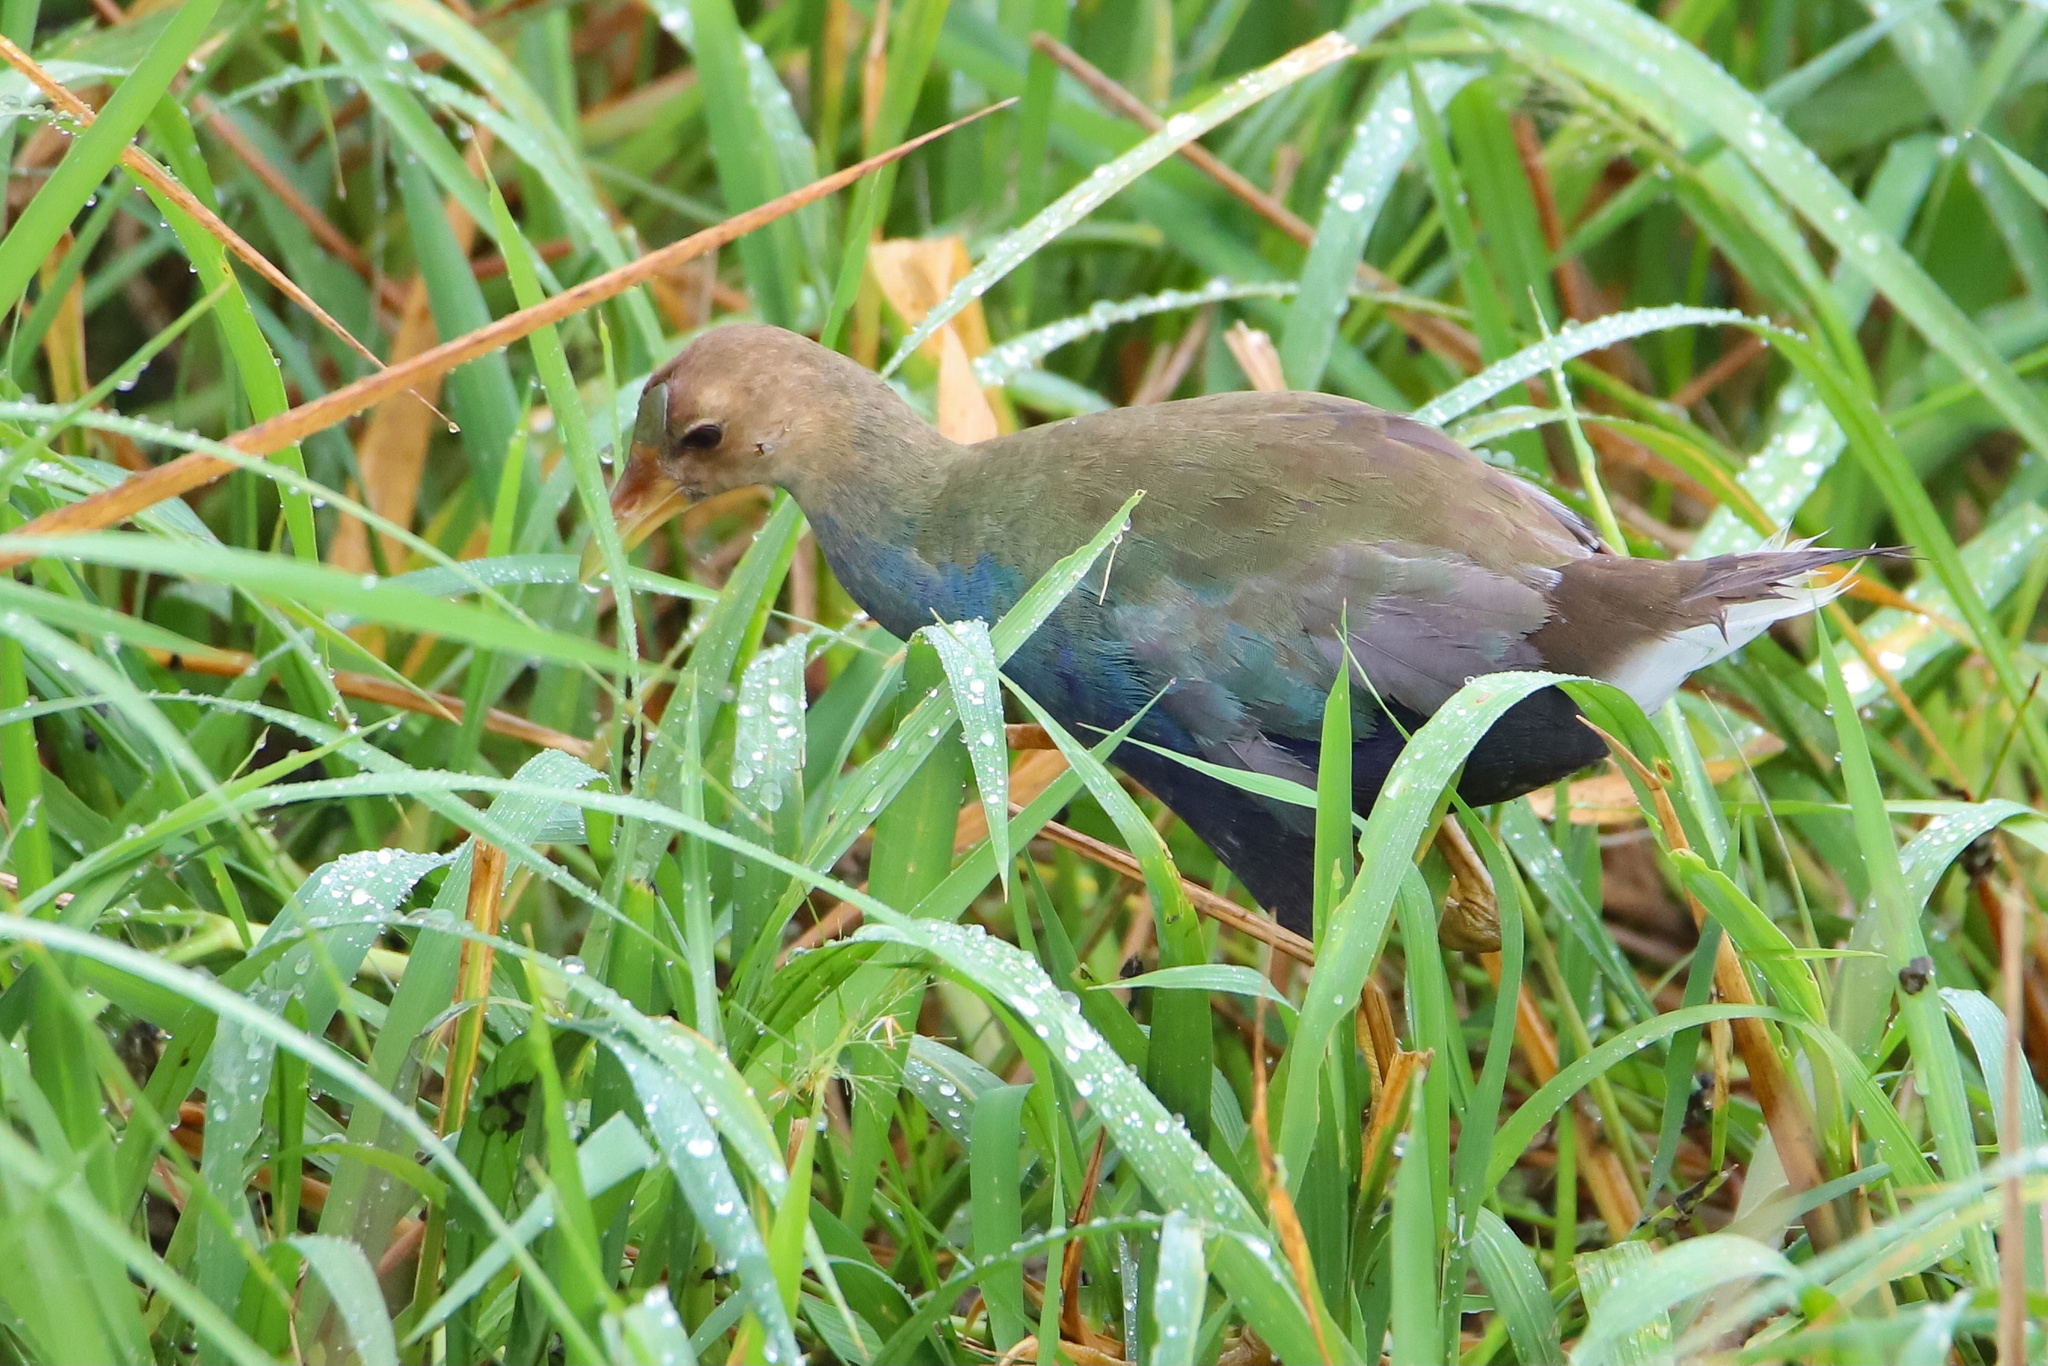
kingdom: Animalia
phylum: Chordata
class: Aves
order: Gruiformes
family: Rallidae
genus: Porphyrio
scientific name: Porphyrio martinica
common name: Purple gallinule
